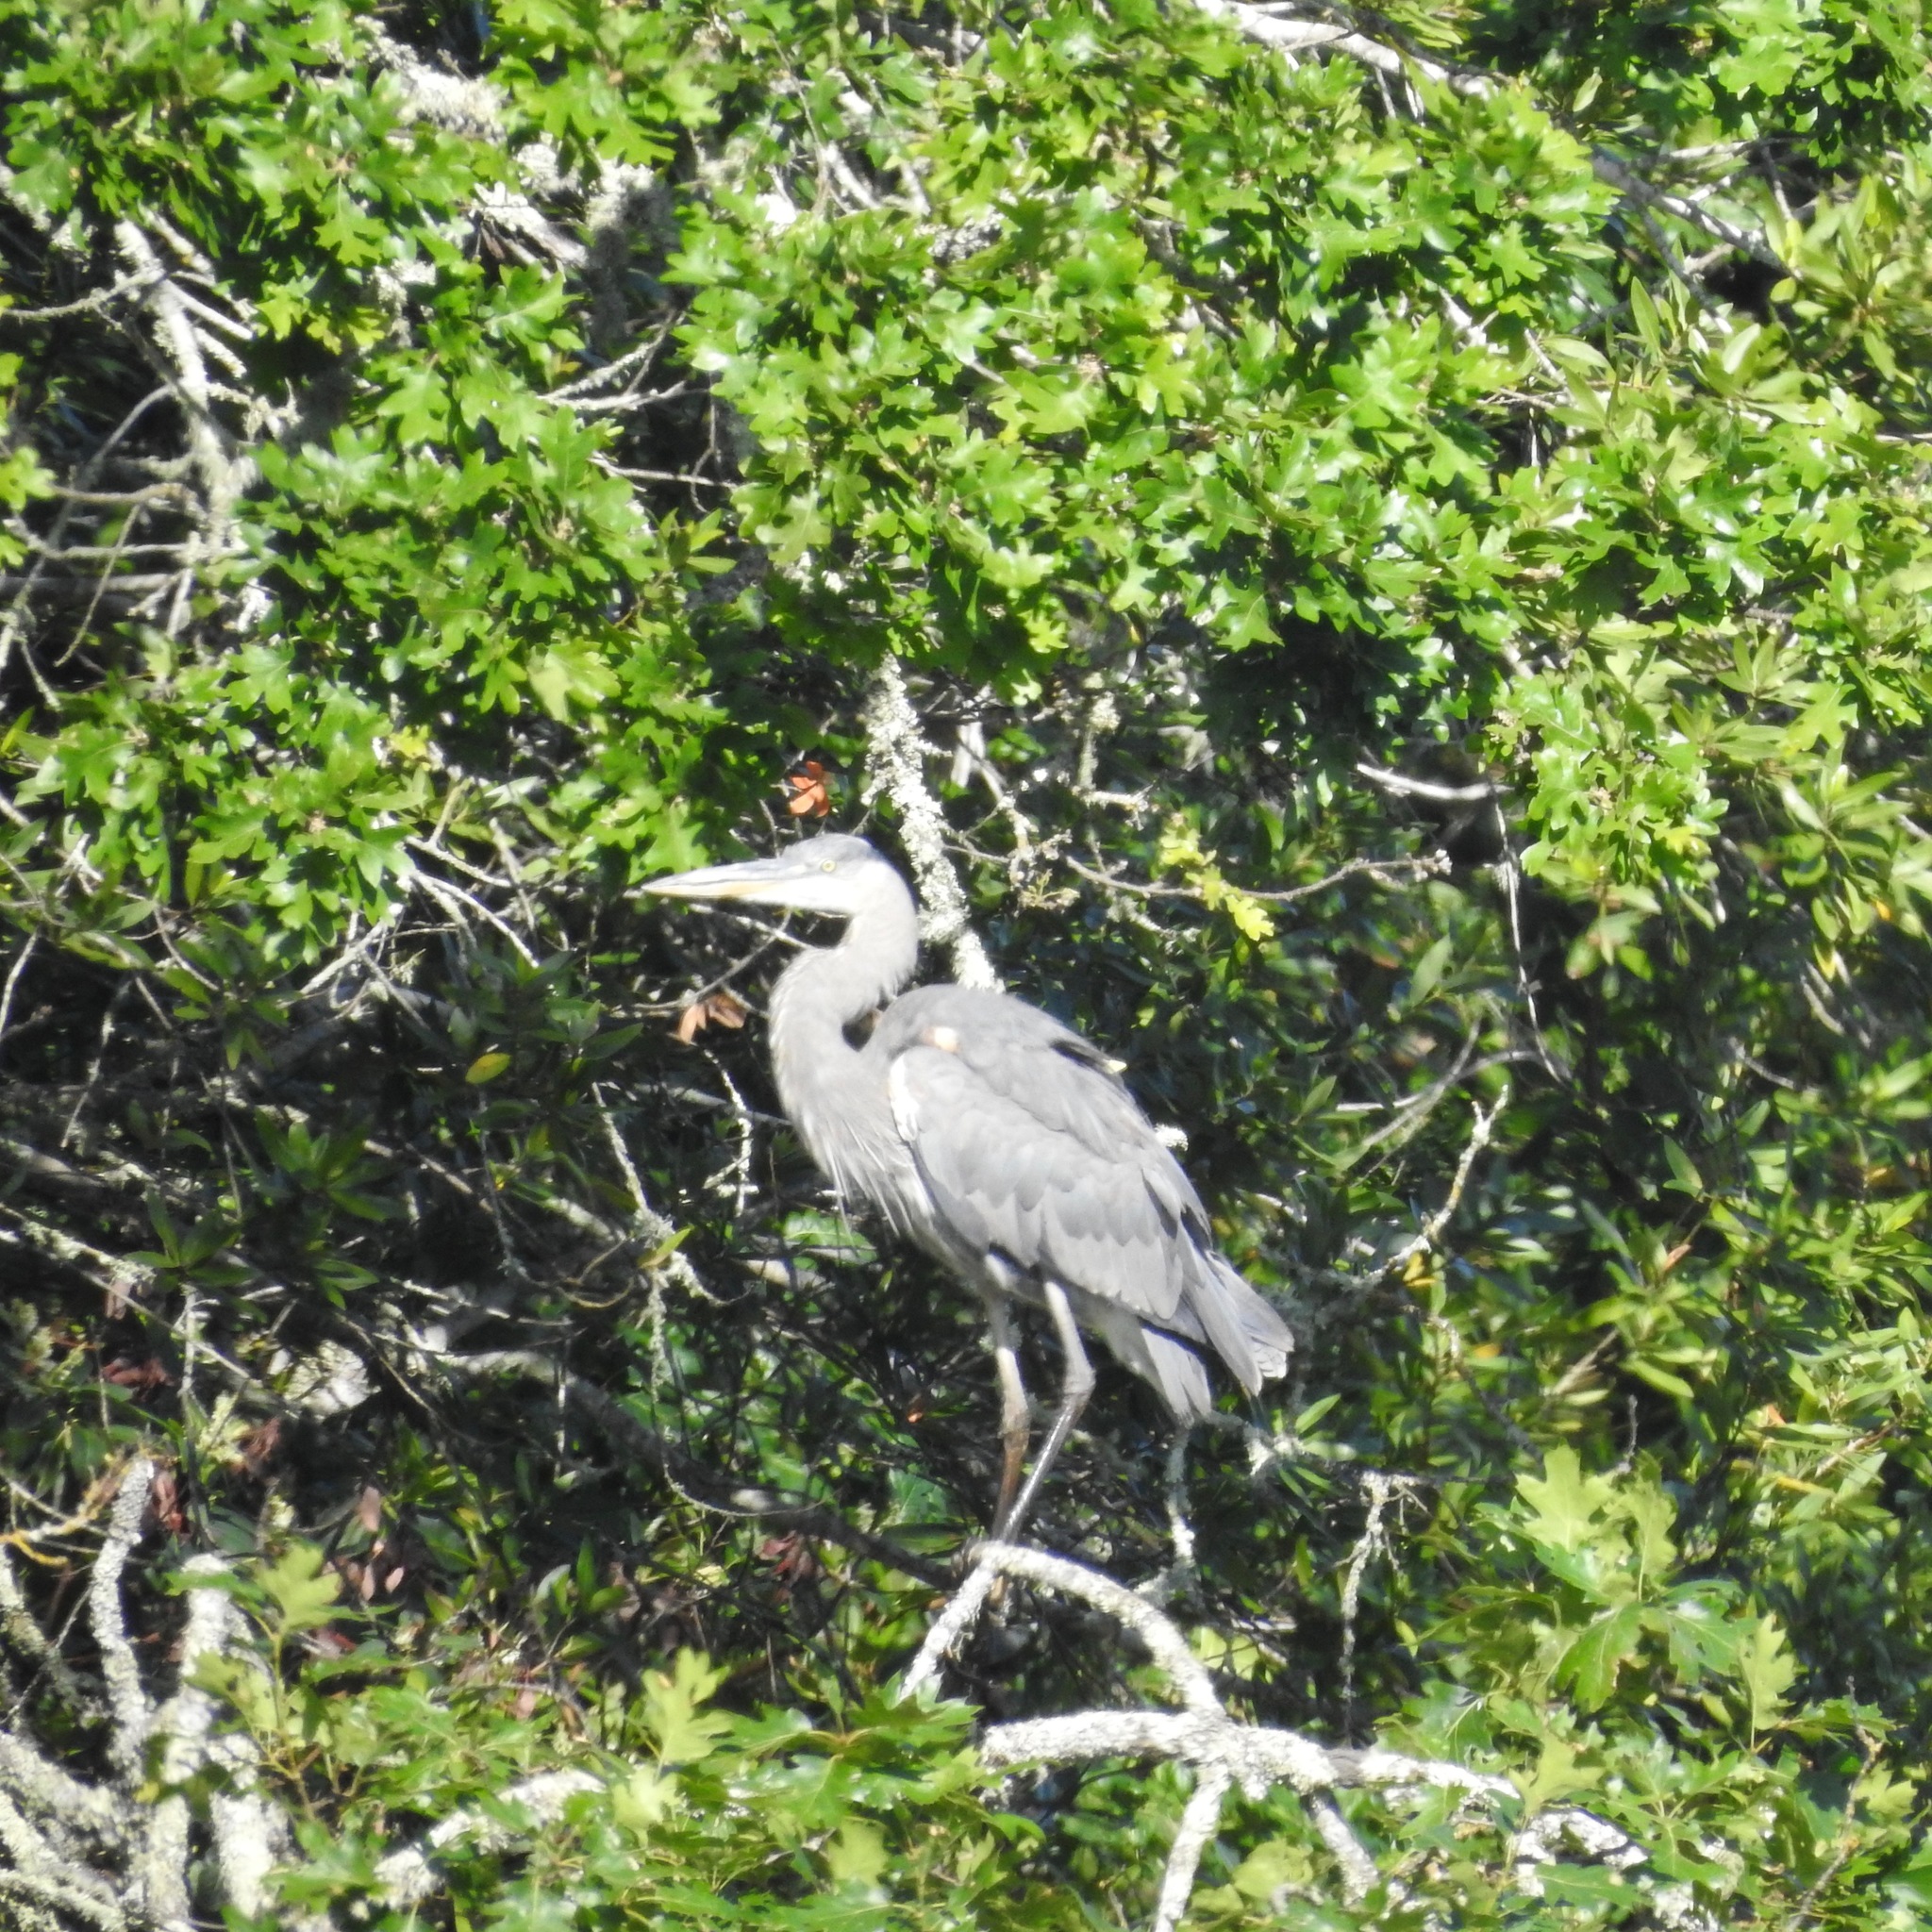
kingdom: Animalia
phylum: Chordata
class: Aves
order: Pelecaniformes
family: Ardeidae
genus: Ardea
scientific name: Ardea herodias
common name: Great blue heron
